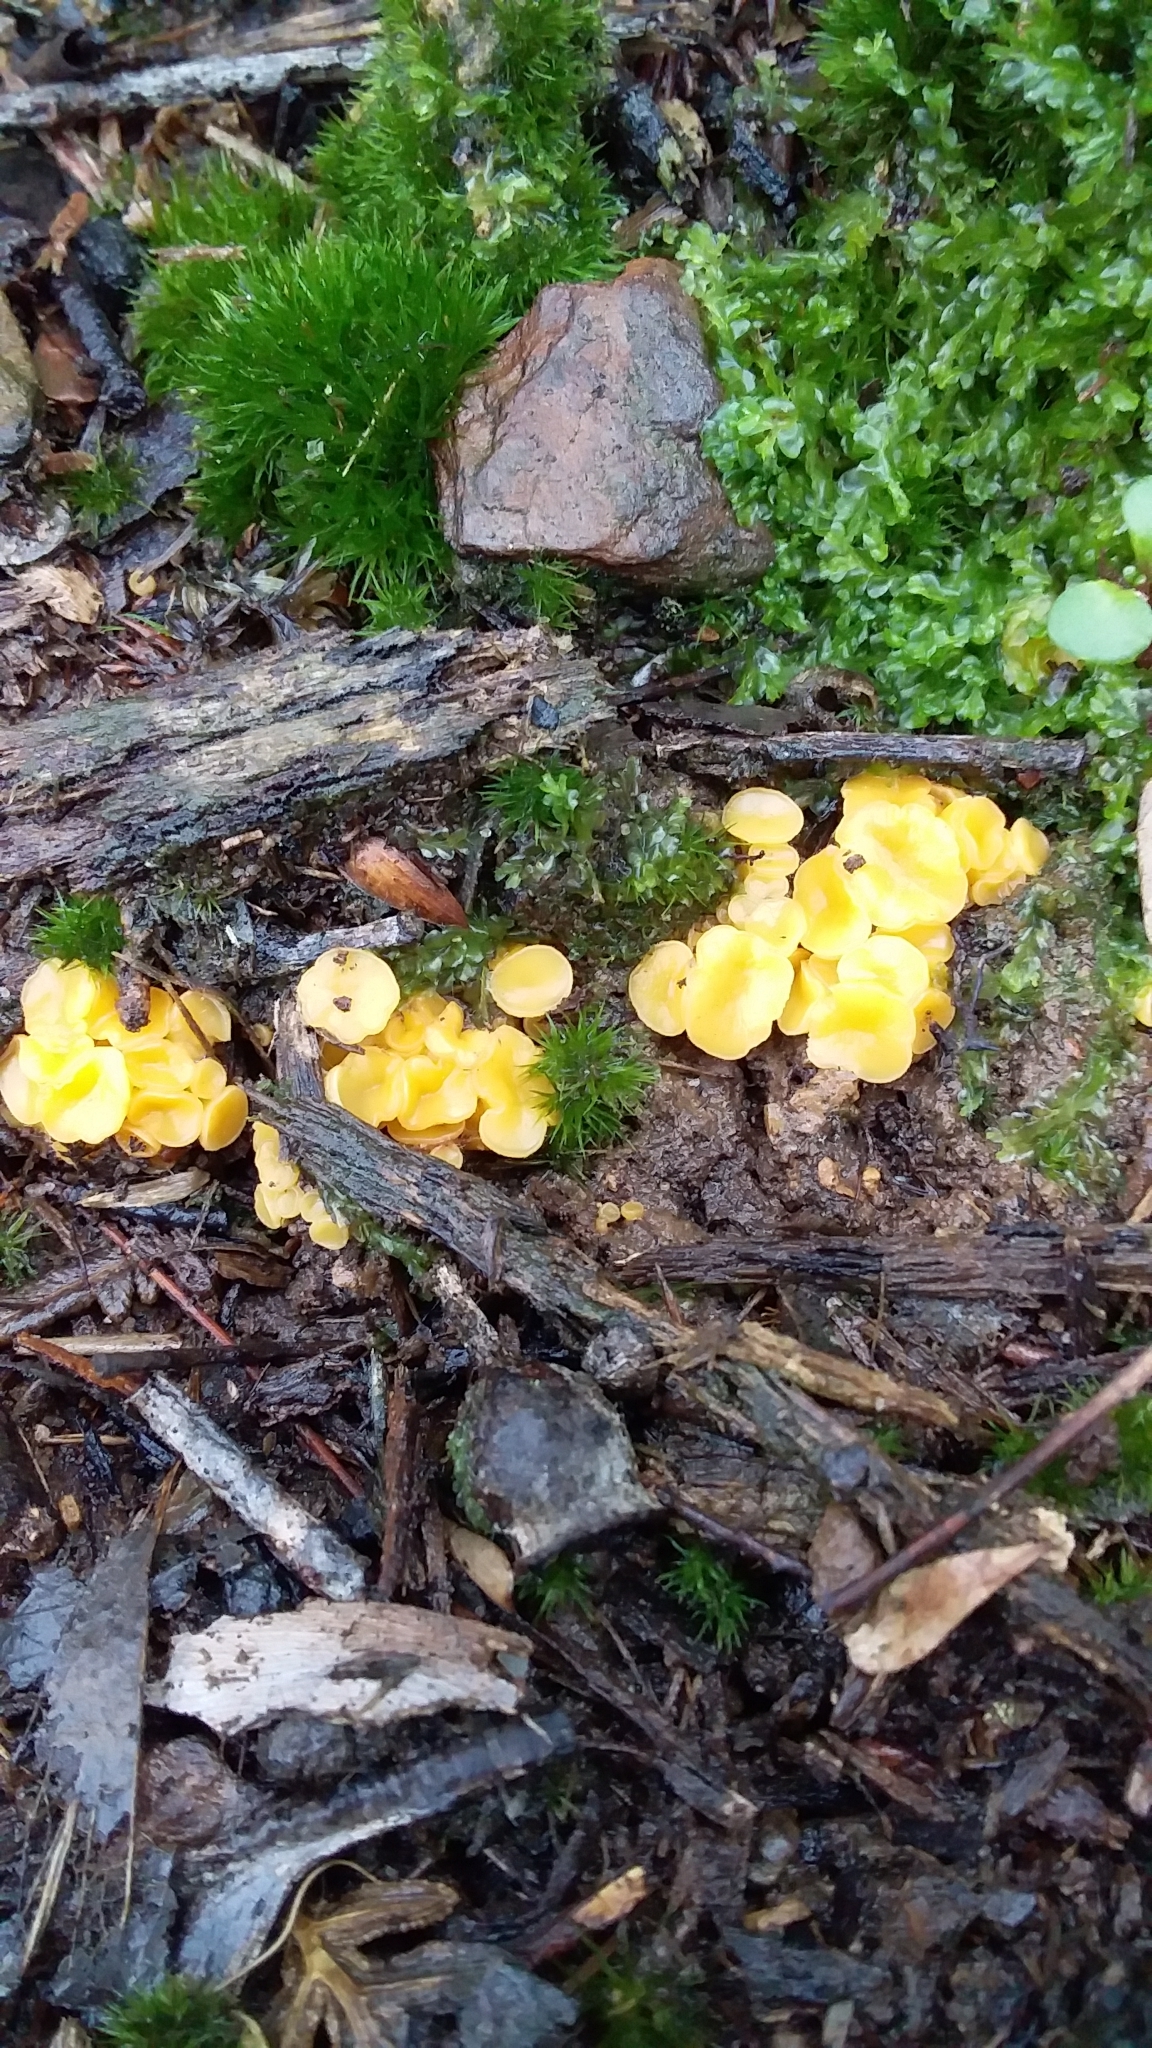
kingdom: Fungi
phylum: Ascomycota
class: Leotiomycetes
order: Helotiales
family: Helotiaceae
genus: Phaeohelotium
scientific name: Phaeohelotium baileyanum
